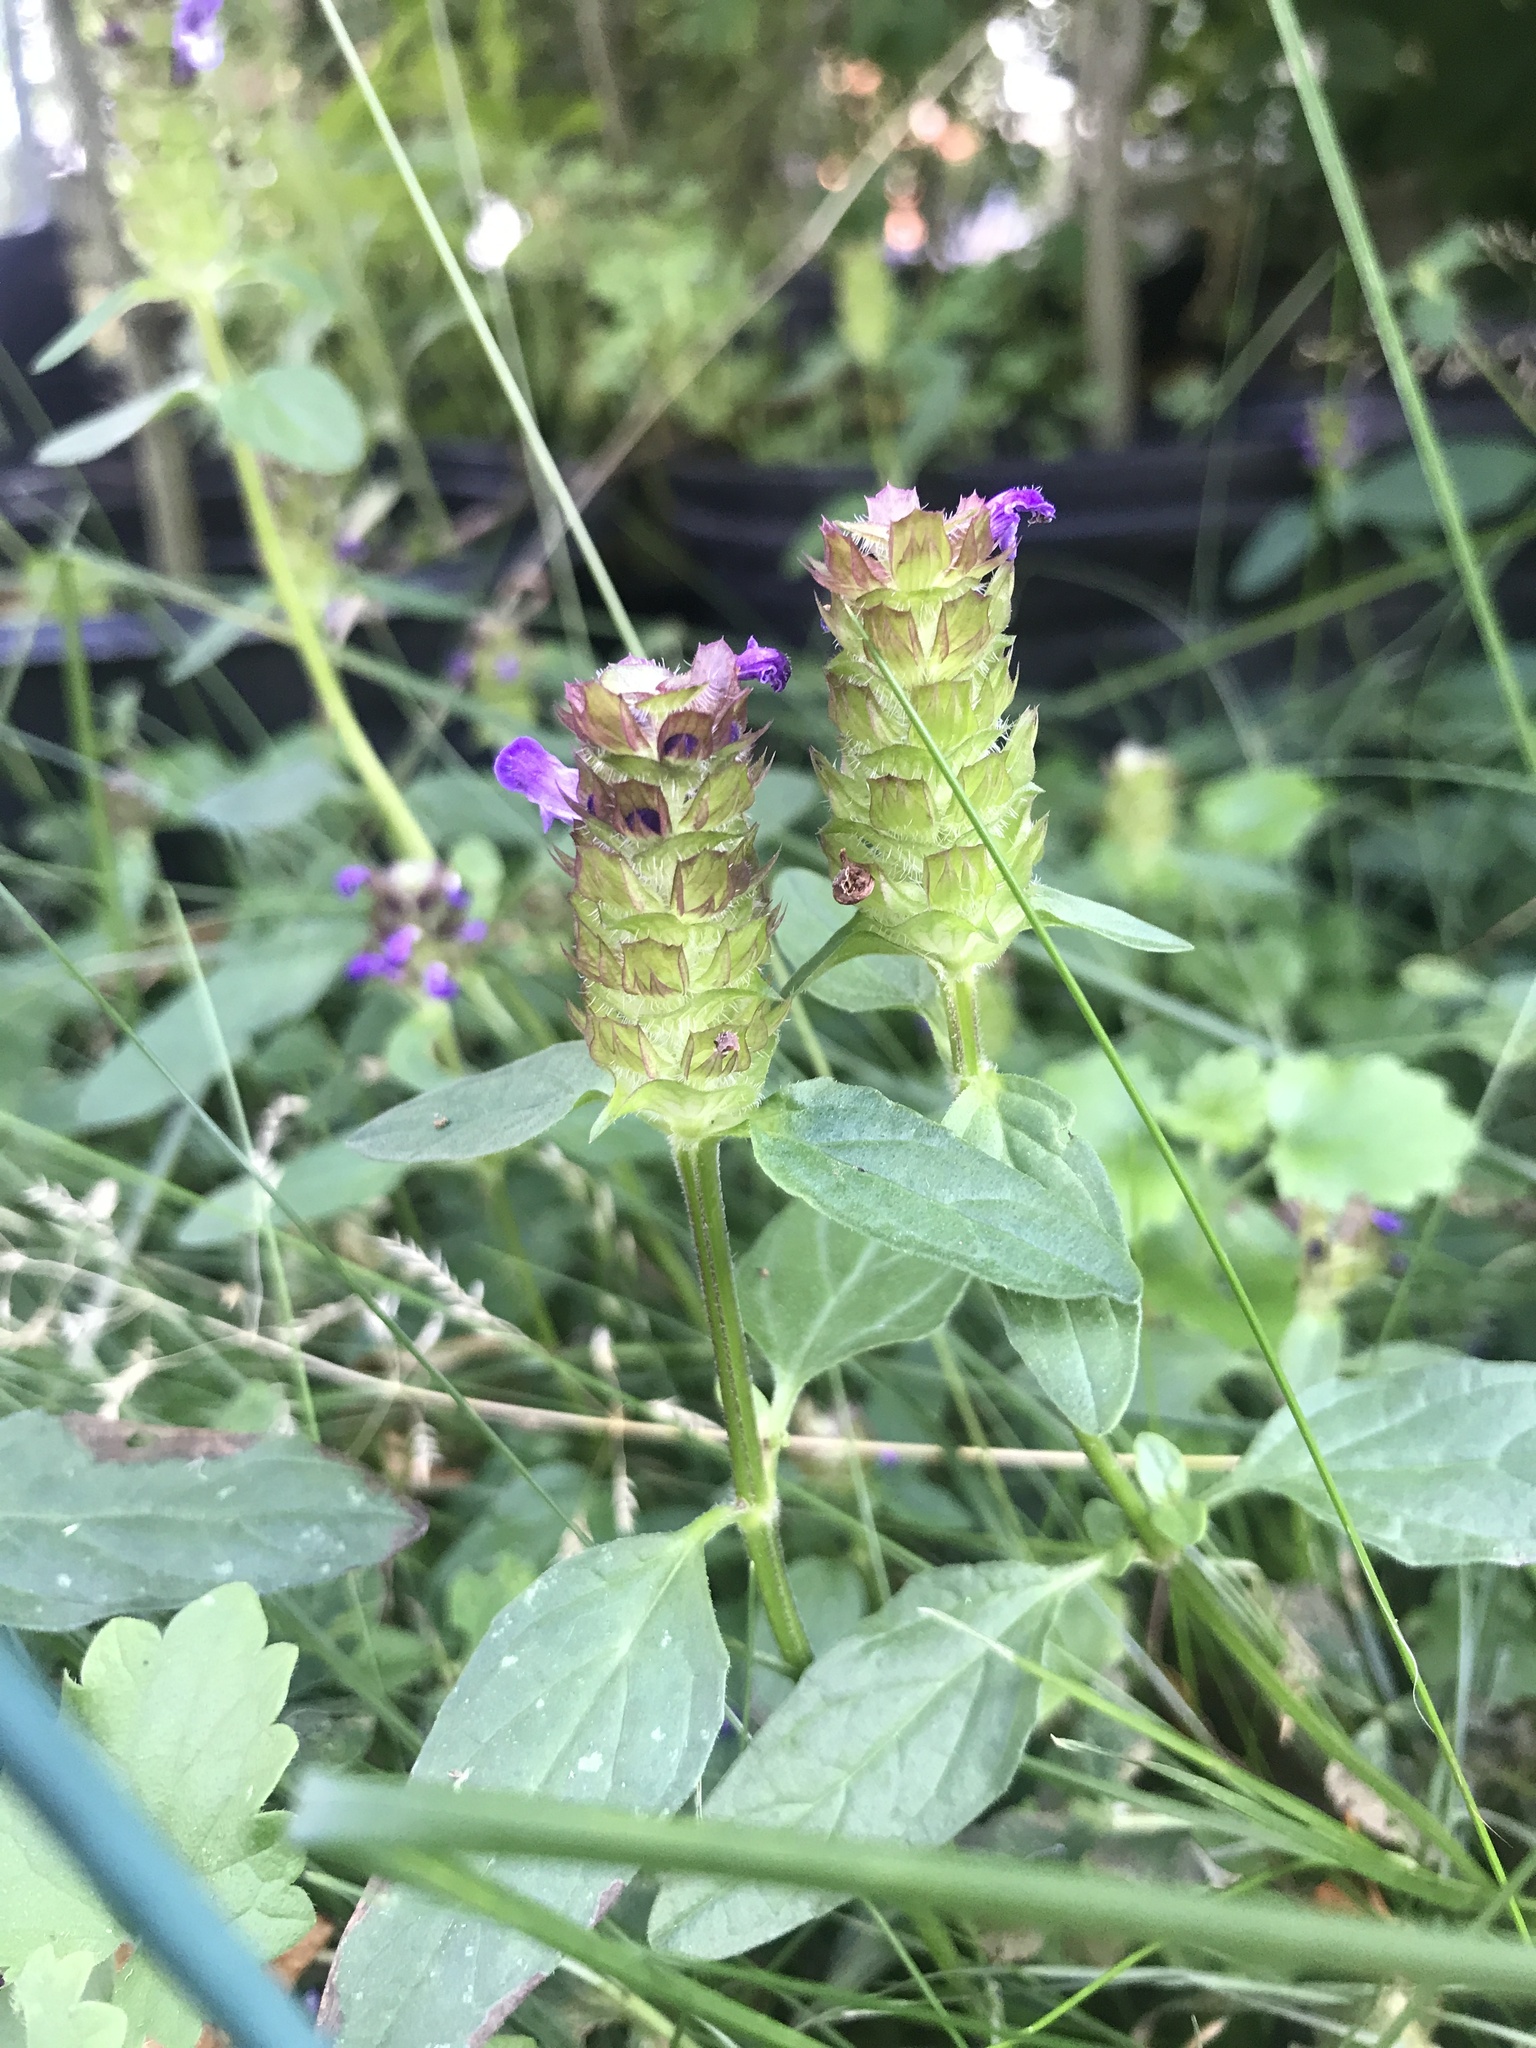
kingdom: Plantae
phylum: Tracheophyta
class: Magnoliopsida
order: Lamiales
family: Lamiaceae
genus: Prunella
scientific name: Prunella vulgaris
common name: Heal-all
